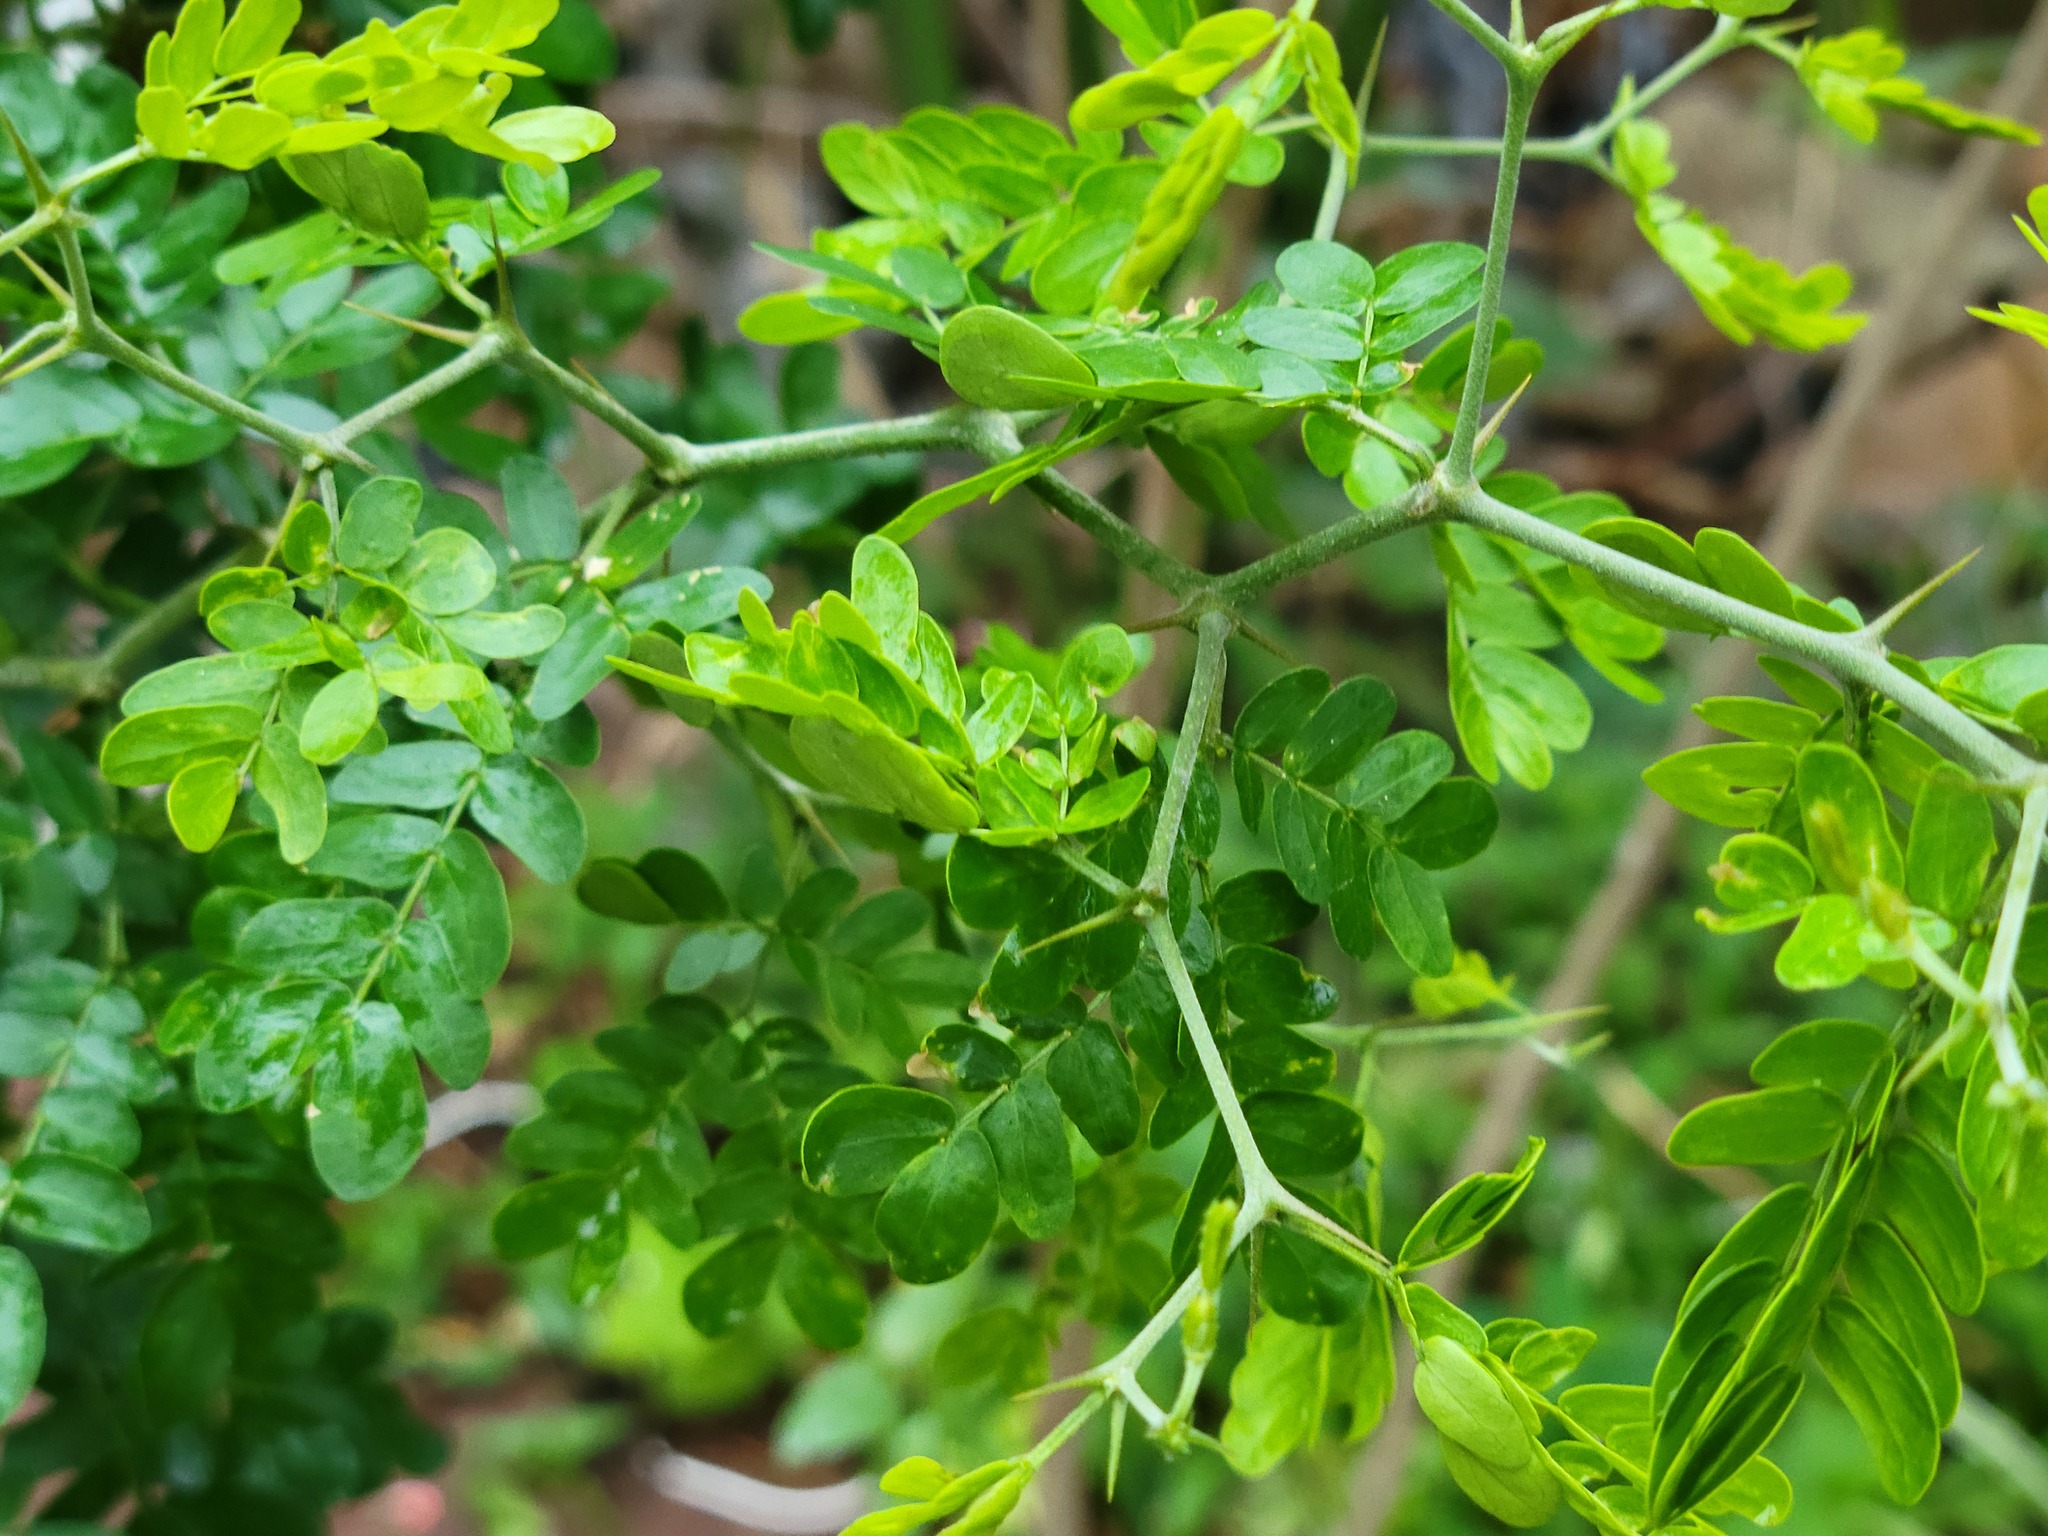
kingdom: Plantae
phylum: Tracheophyta
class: Magnoliopsida
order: Fabales
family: Fabaceae
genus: Ebenopsis
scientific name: Ebenopsis ebano
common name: Ebony blackbead
